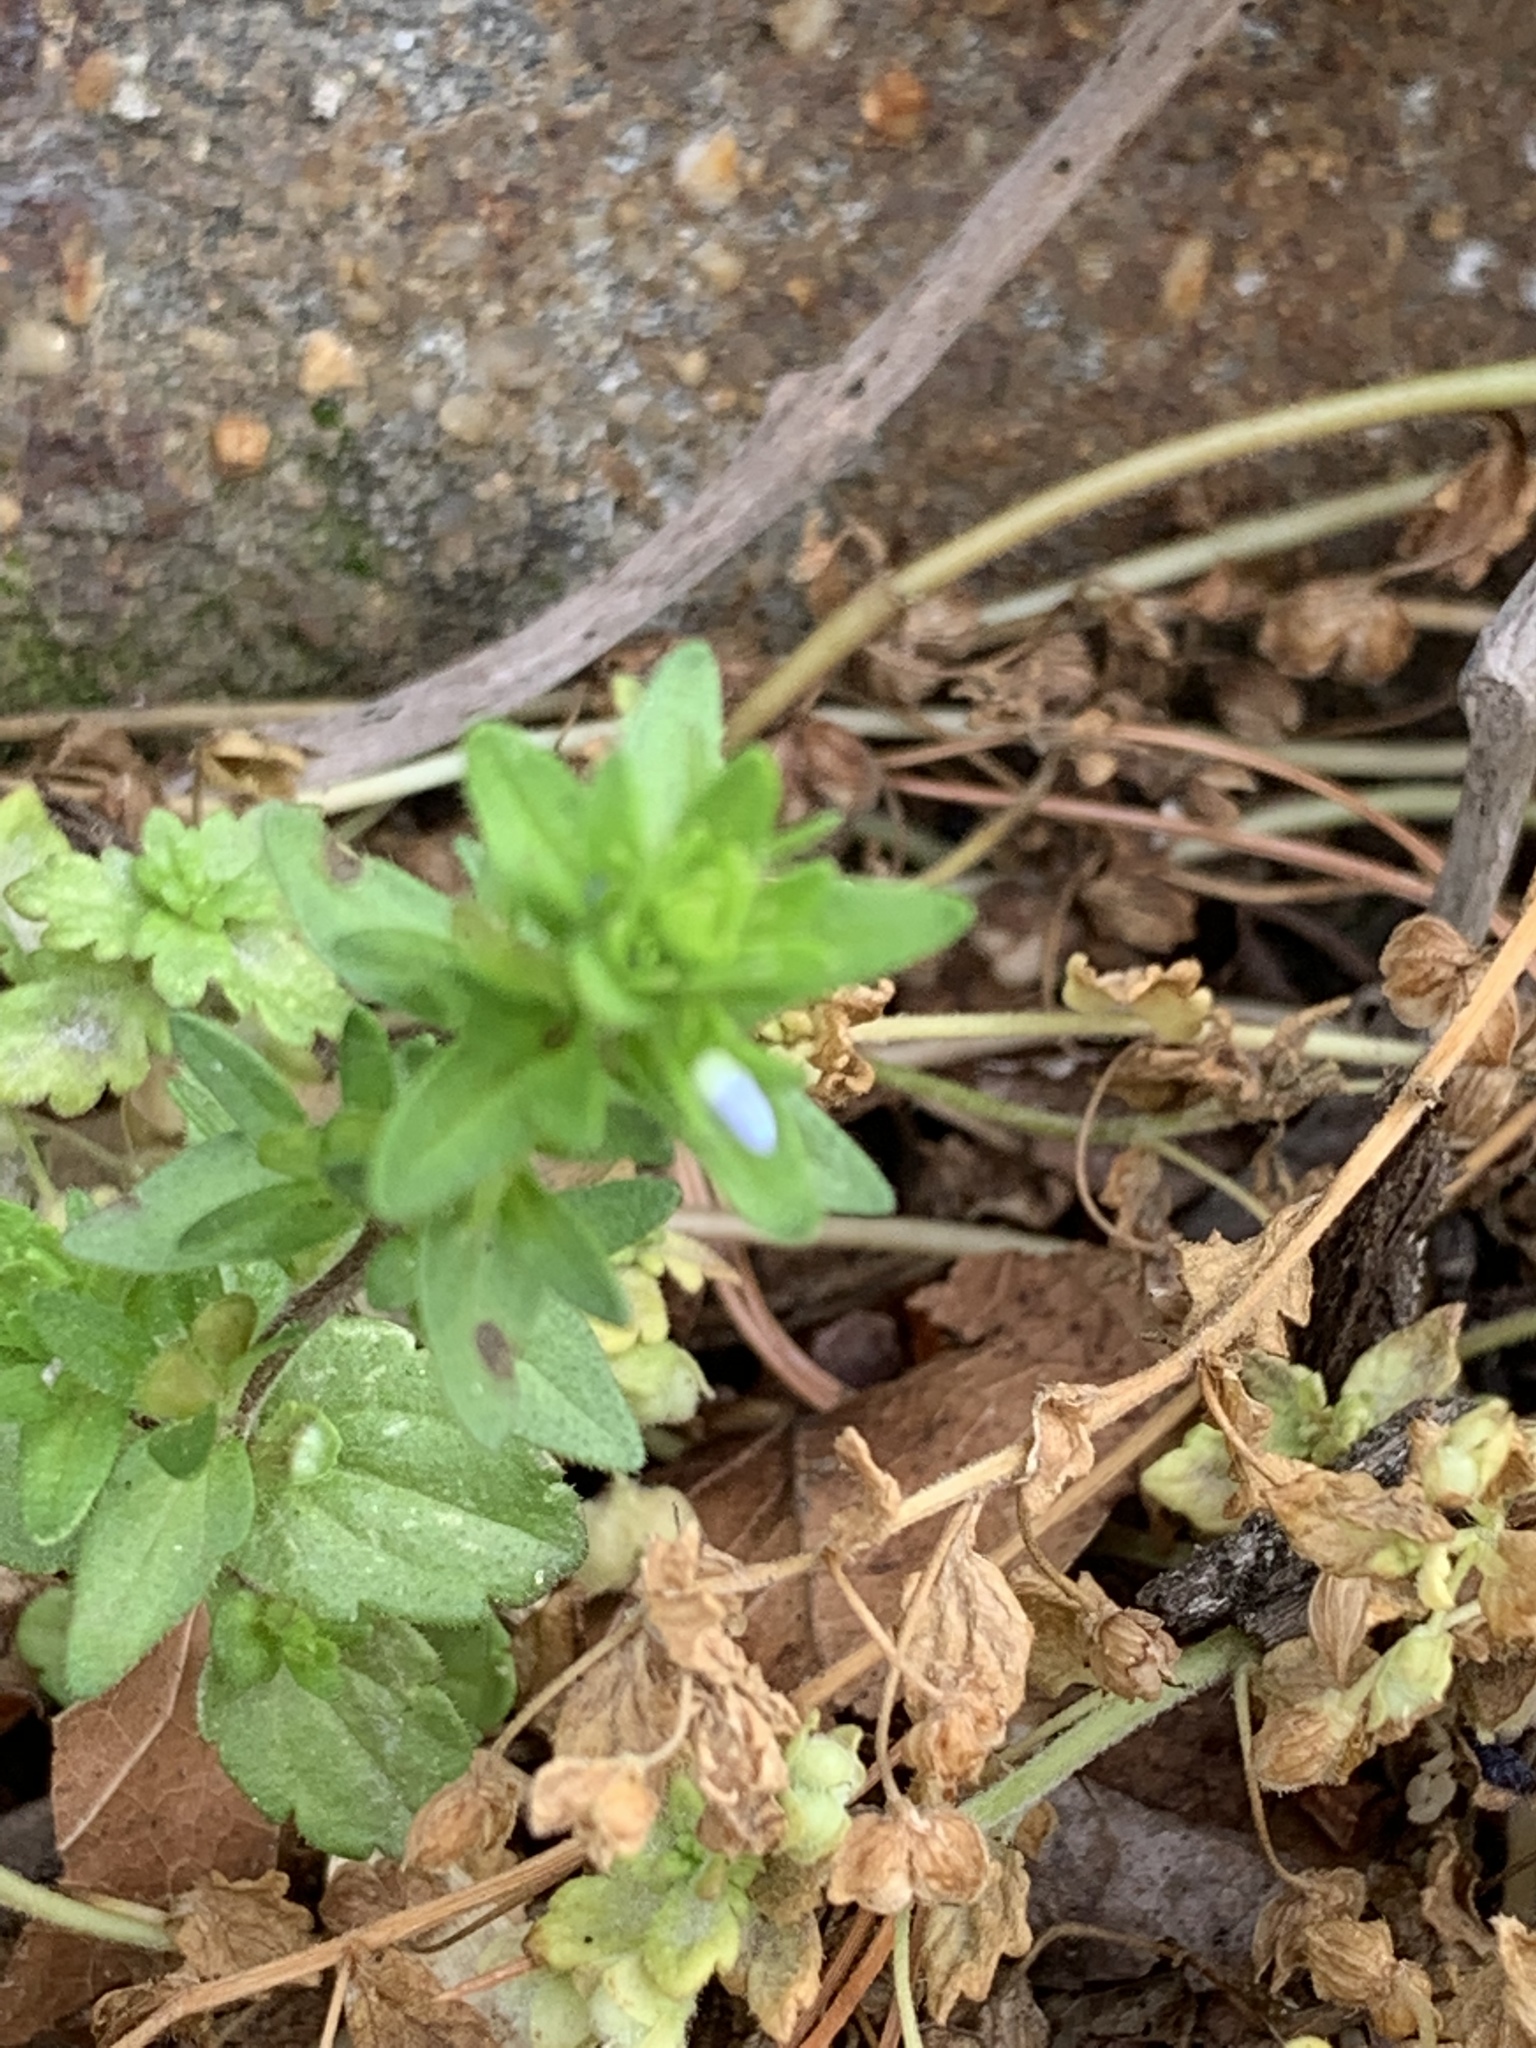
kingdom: Plantae
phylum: Tracheophyta
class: Magnoliopsida
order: Lamiales
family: Plantaginaceae
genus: Veronica
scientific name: Veronica arvensis
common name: Corn speedwell
